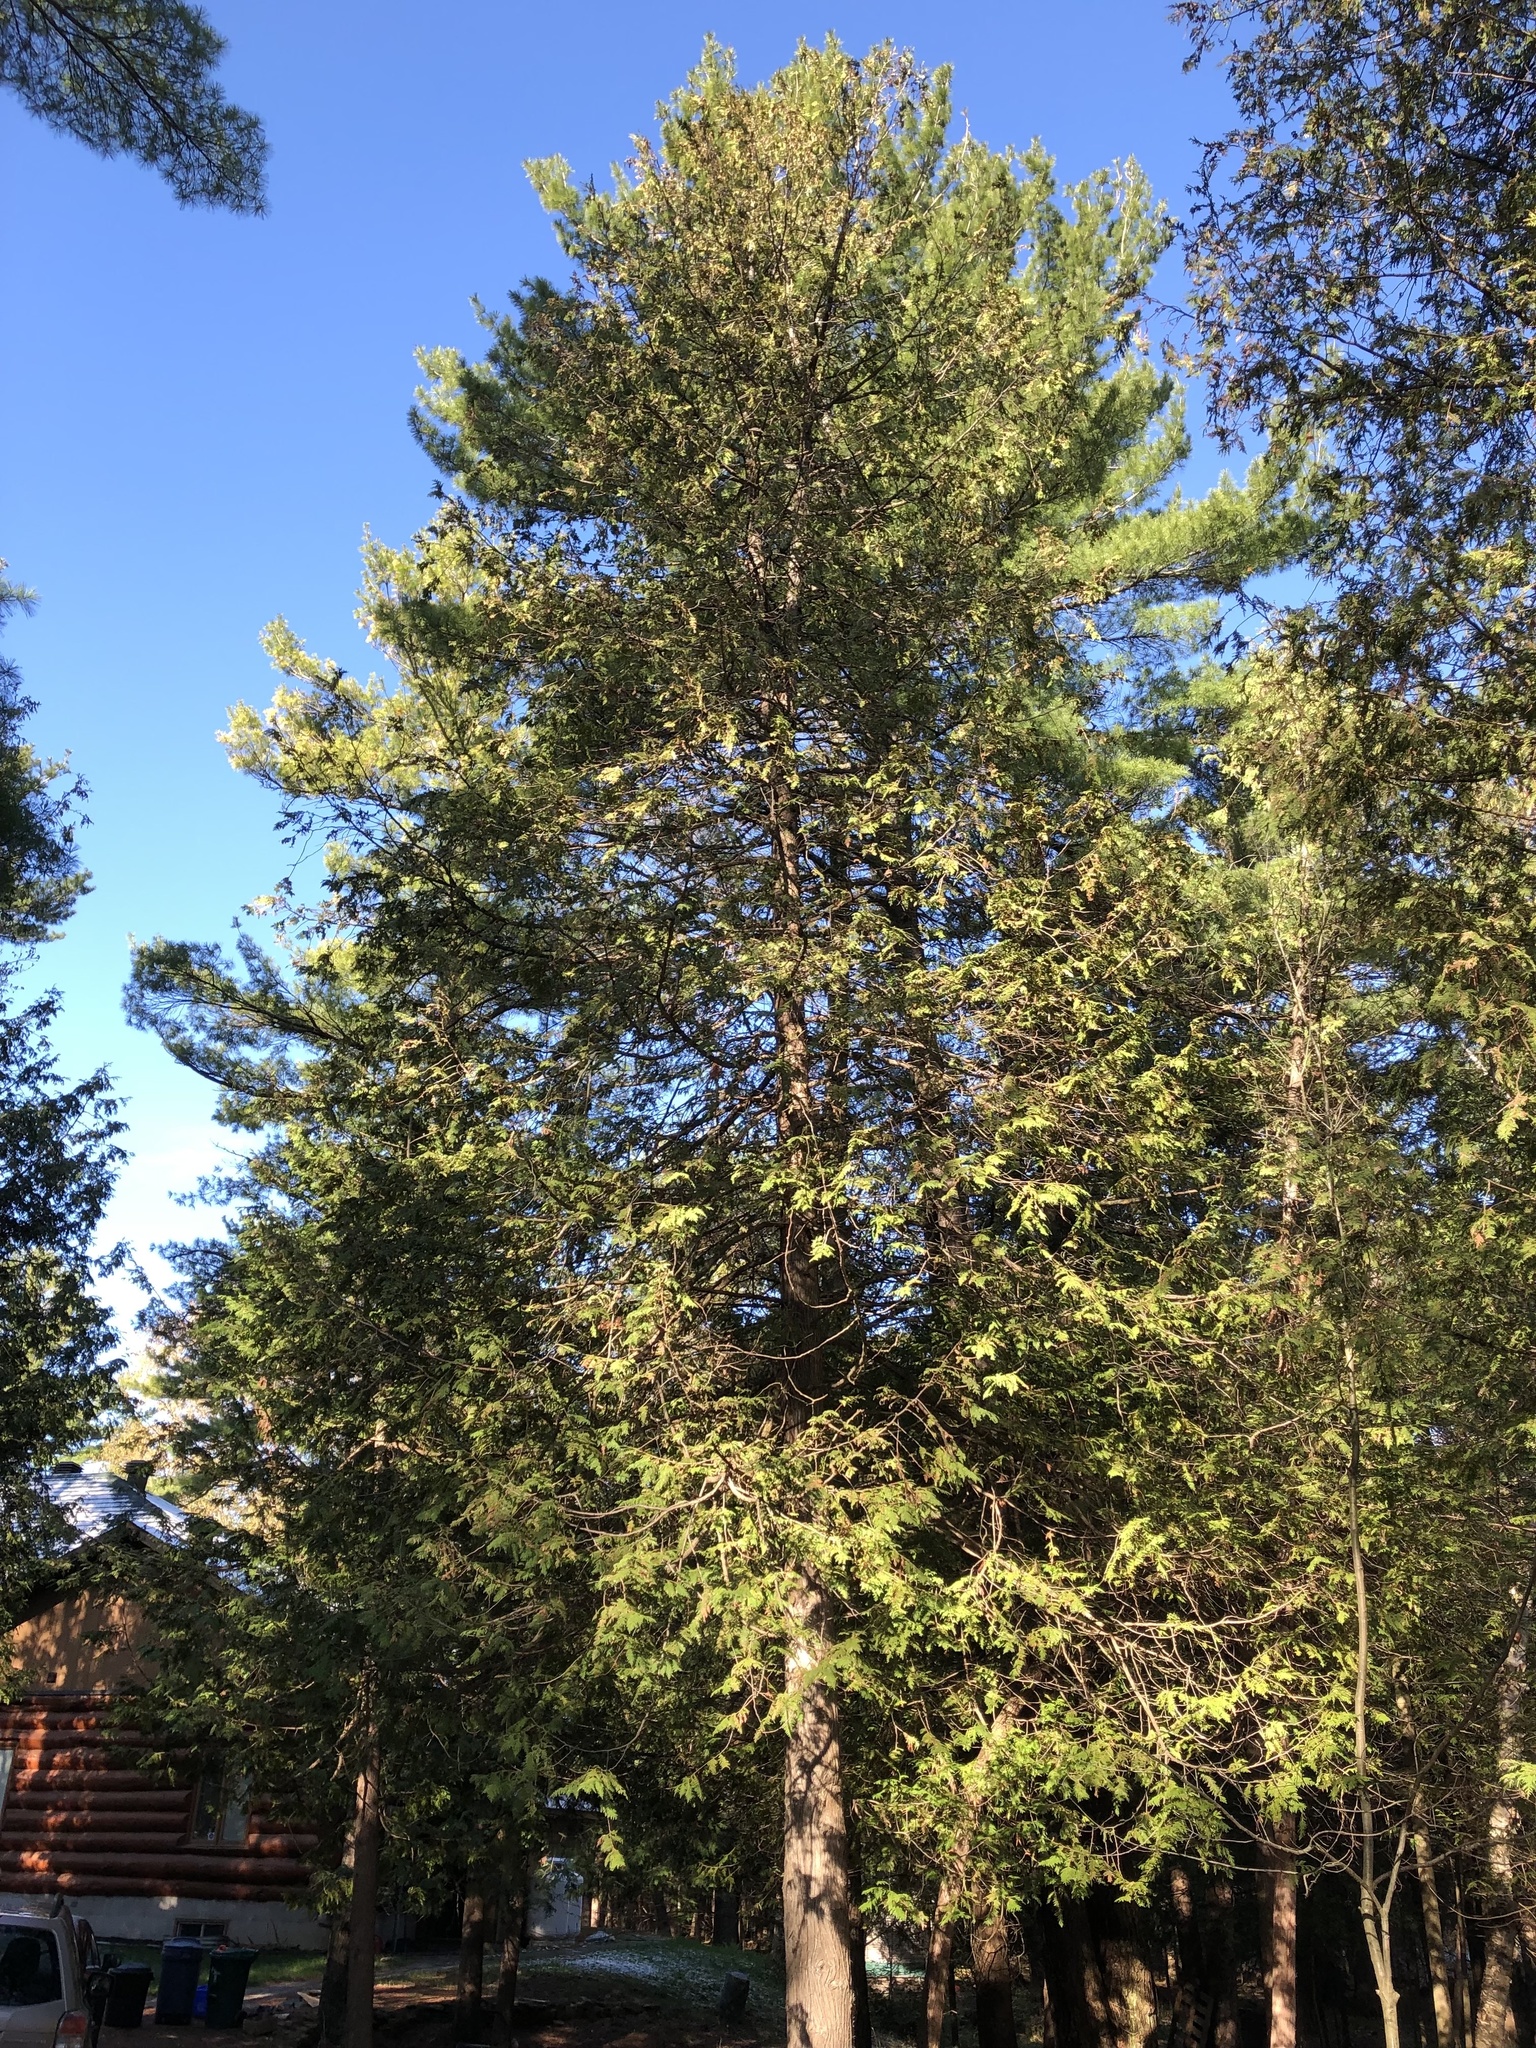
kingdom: Plantae
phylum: Tracheophyta
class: Pinopsida
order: Pinales
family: Cupressaceae
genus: Thuja
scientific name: Thuja occidentalis
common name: Northern white-cedar
